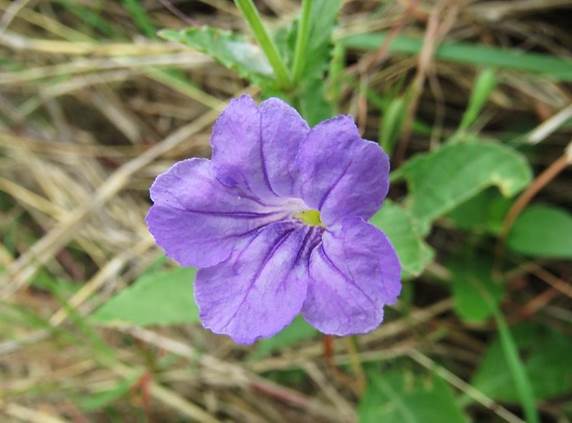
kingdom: Plantae
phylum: Tracheophyta
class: Magnoliopsida
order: Lamiales
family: Acanthaceae
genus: Ruellia
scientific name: Ruellia ciliatiflora
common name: Hairyflower wild petunia
